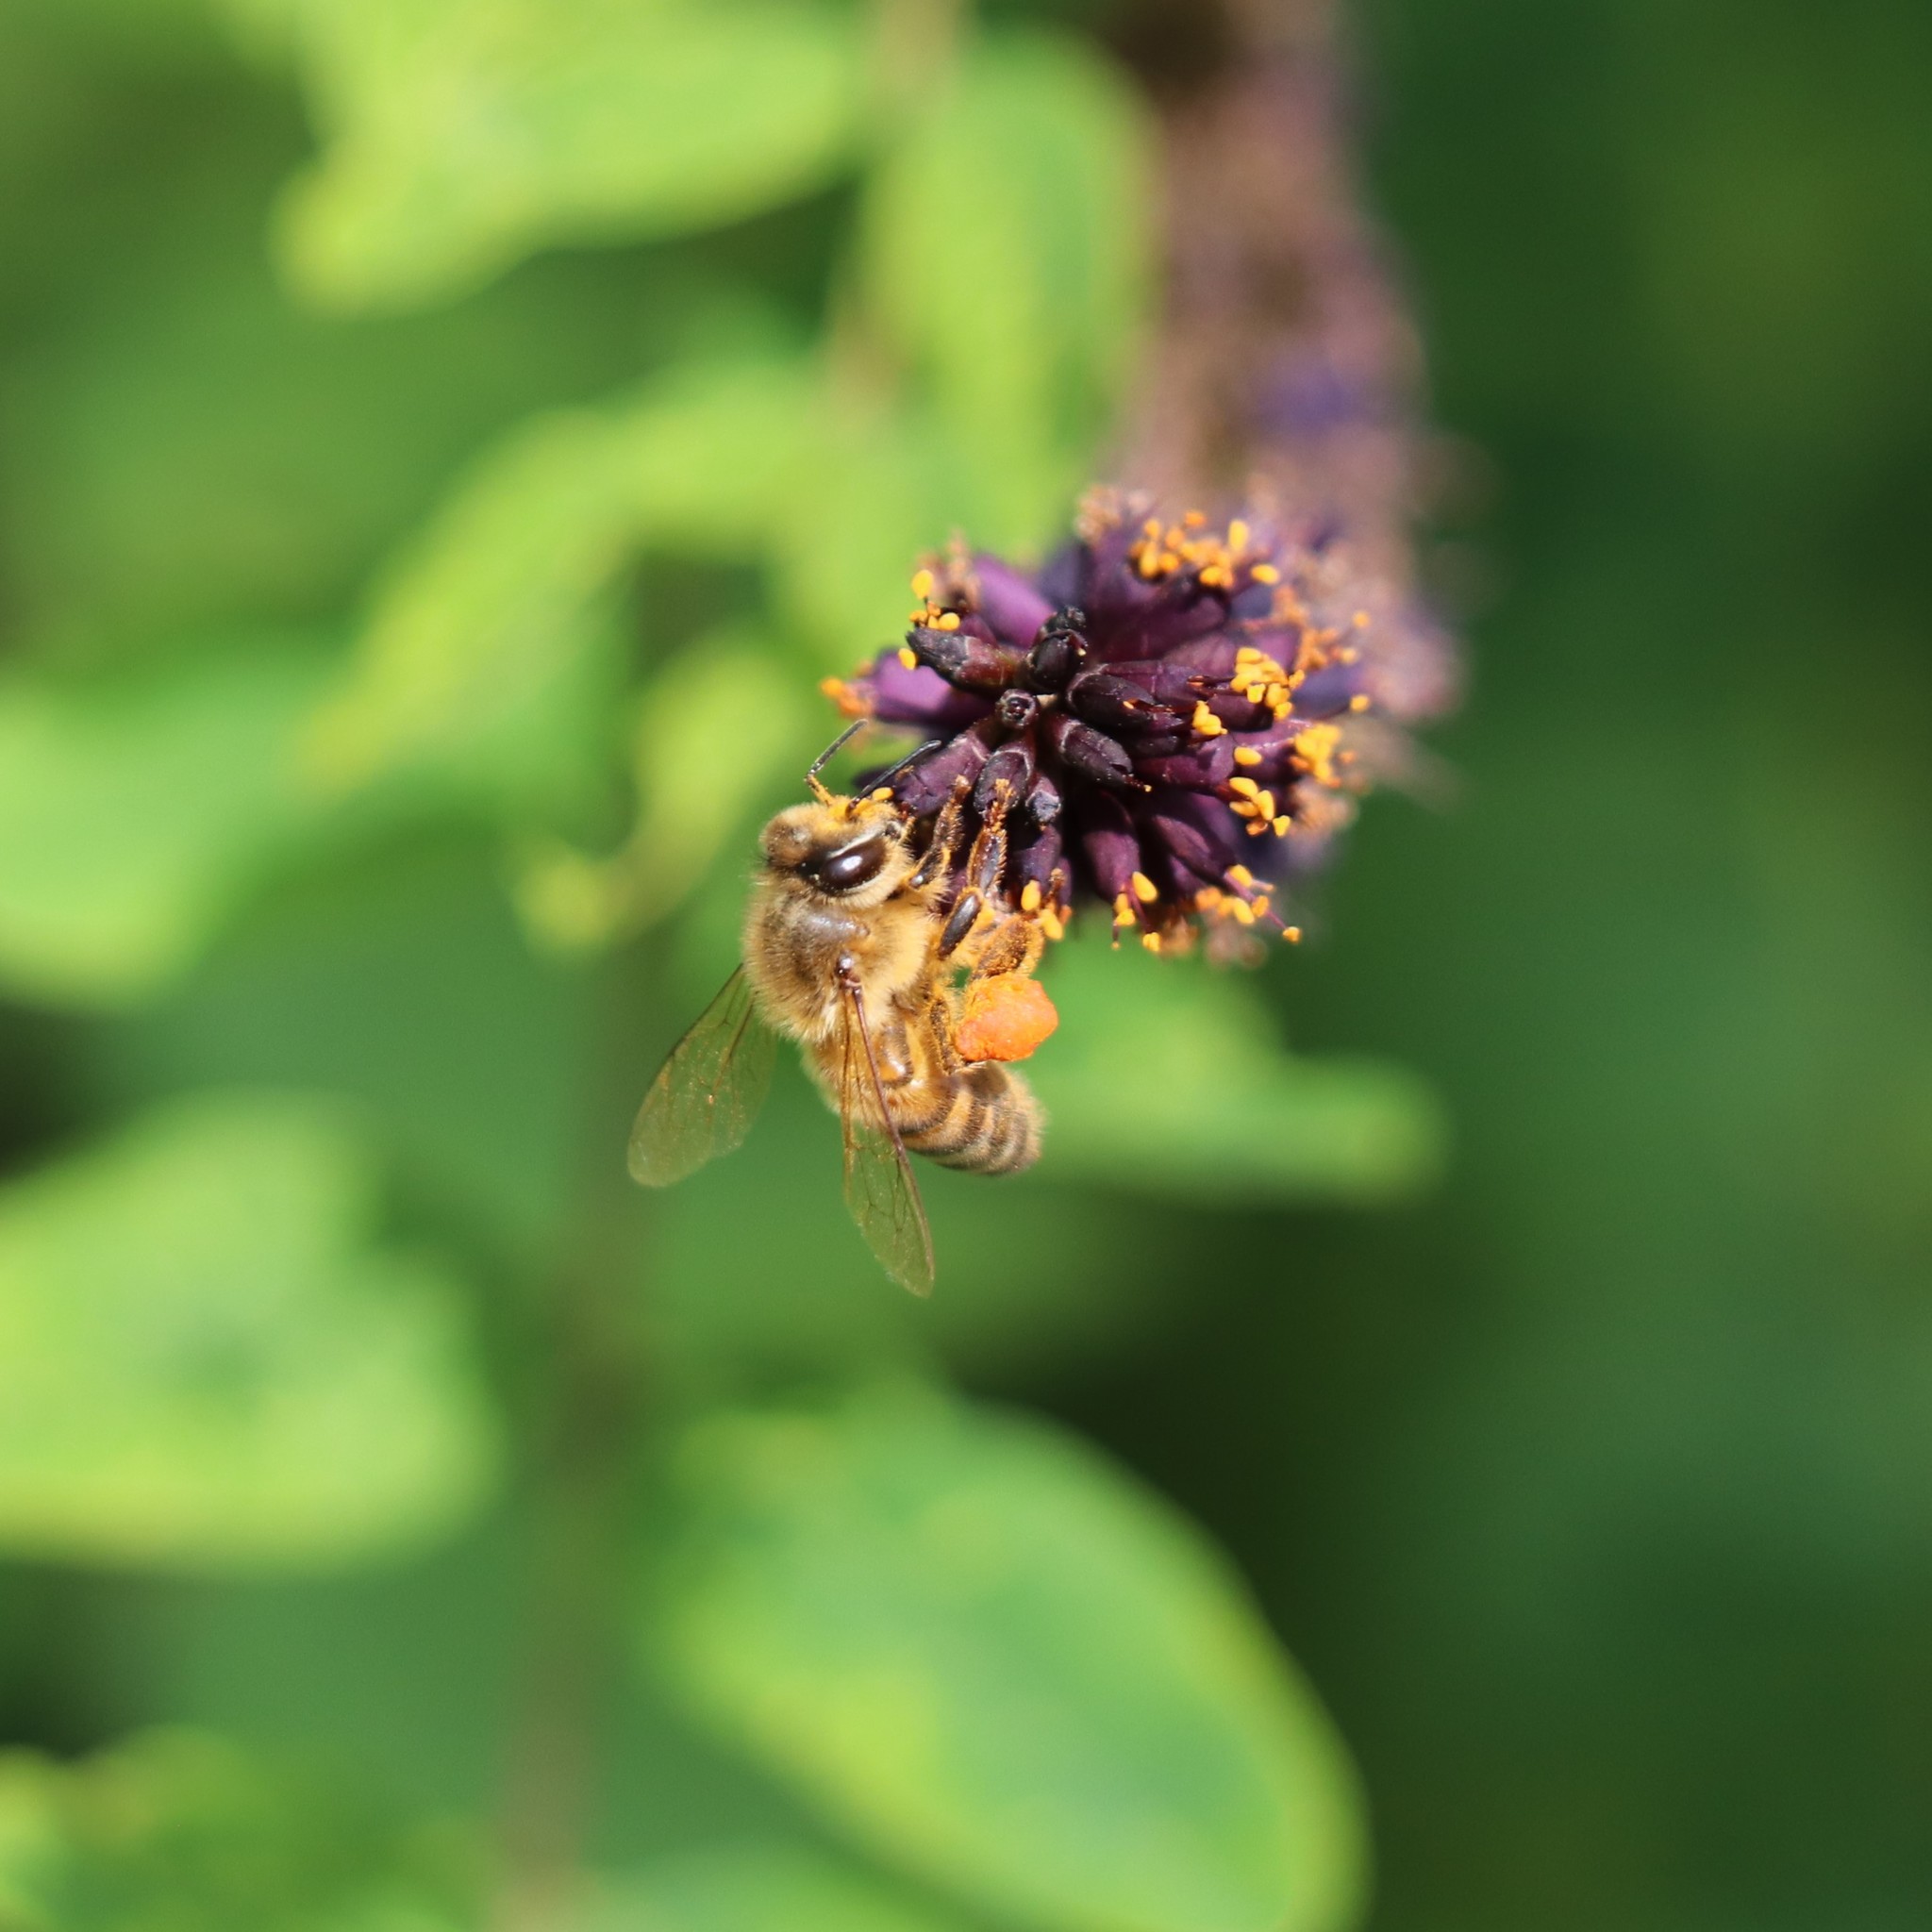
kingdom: Animalia
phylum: Arthropoda
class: Insecta
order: Hymenoptera
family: Apidae
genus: Apis
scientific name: Apis mellifera
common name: Honey bee
